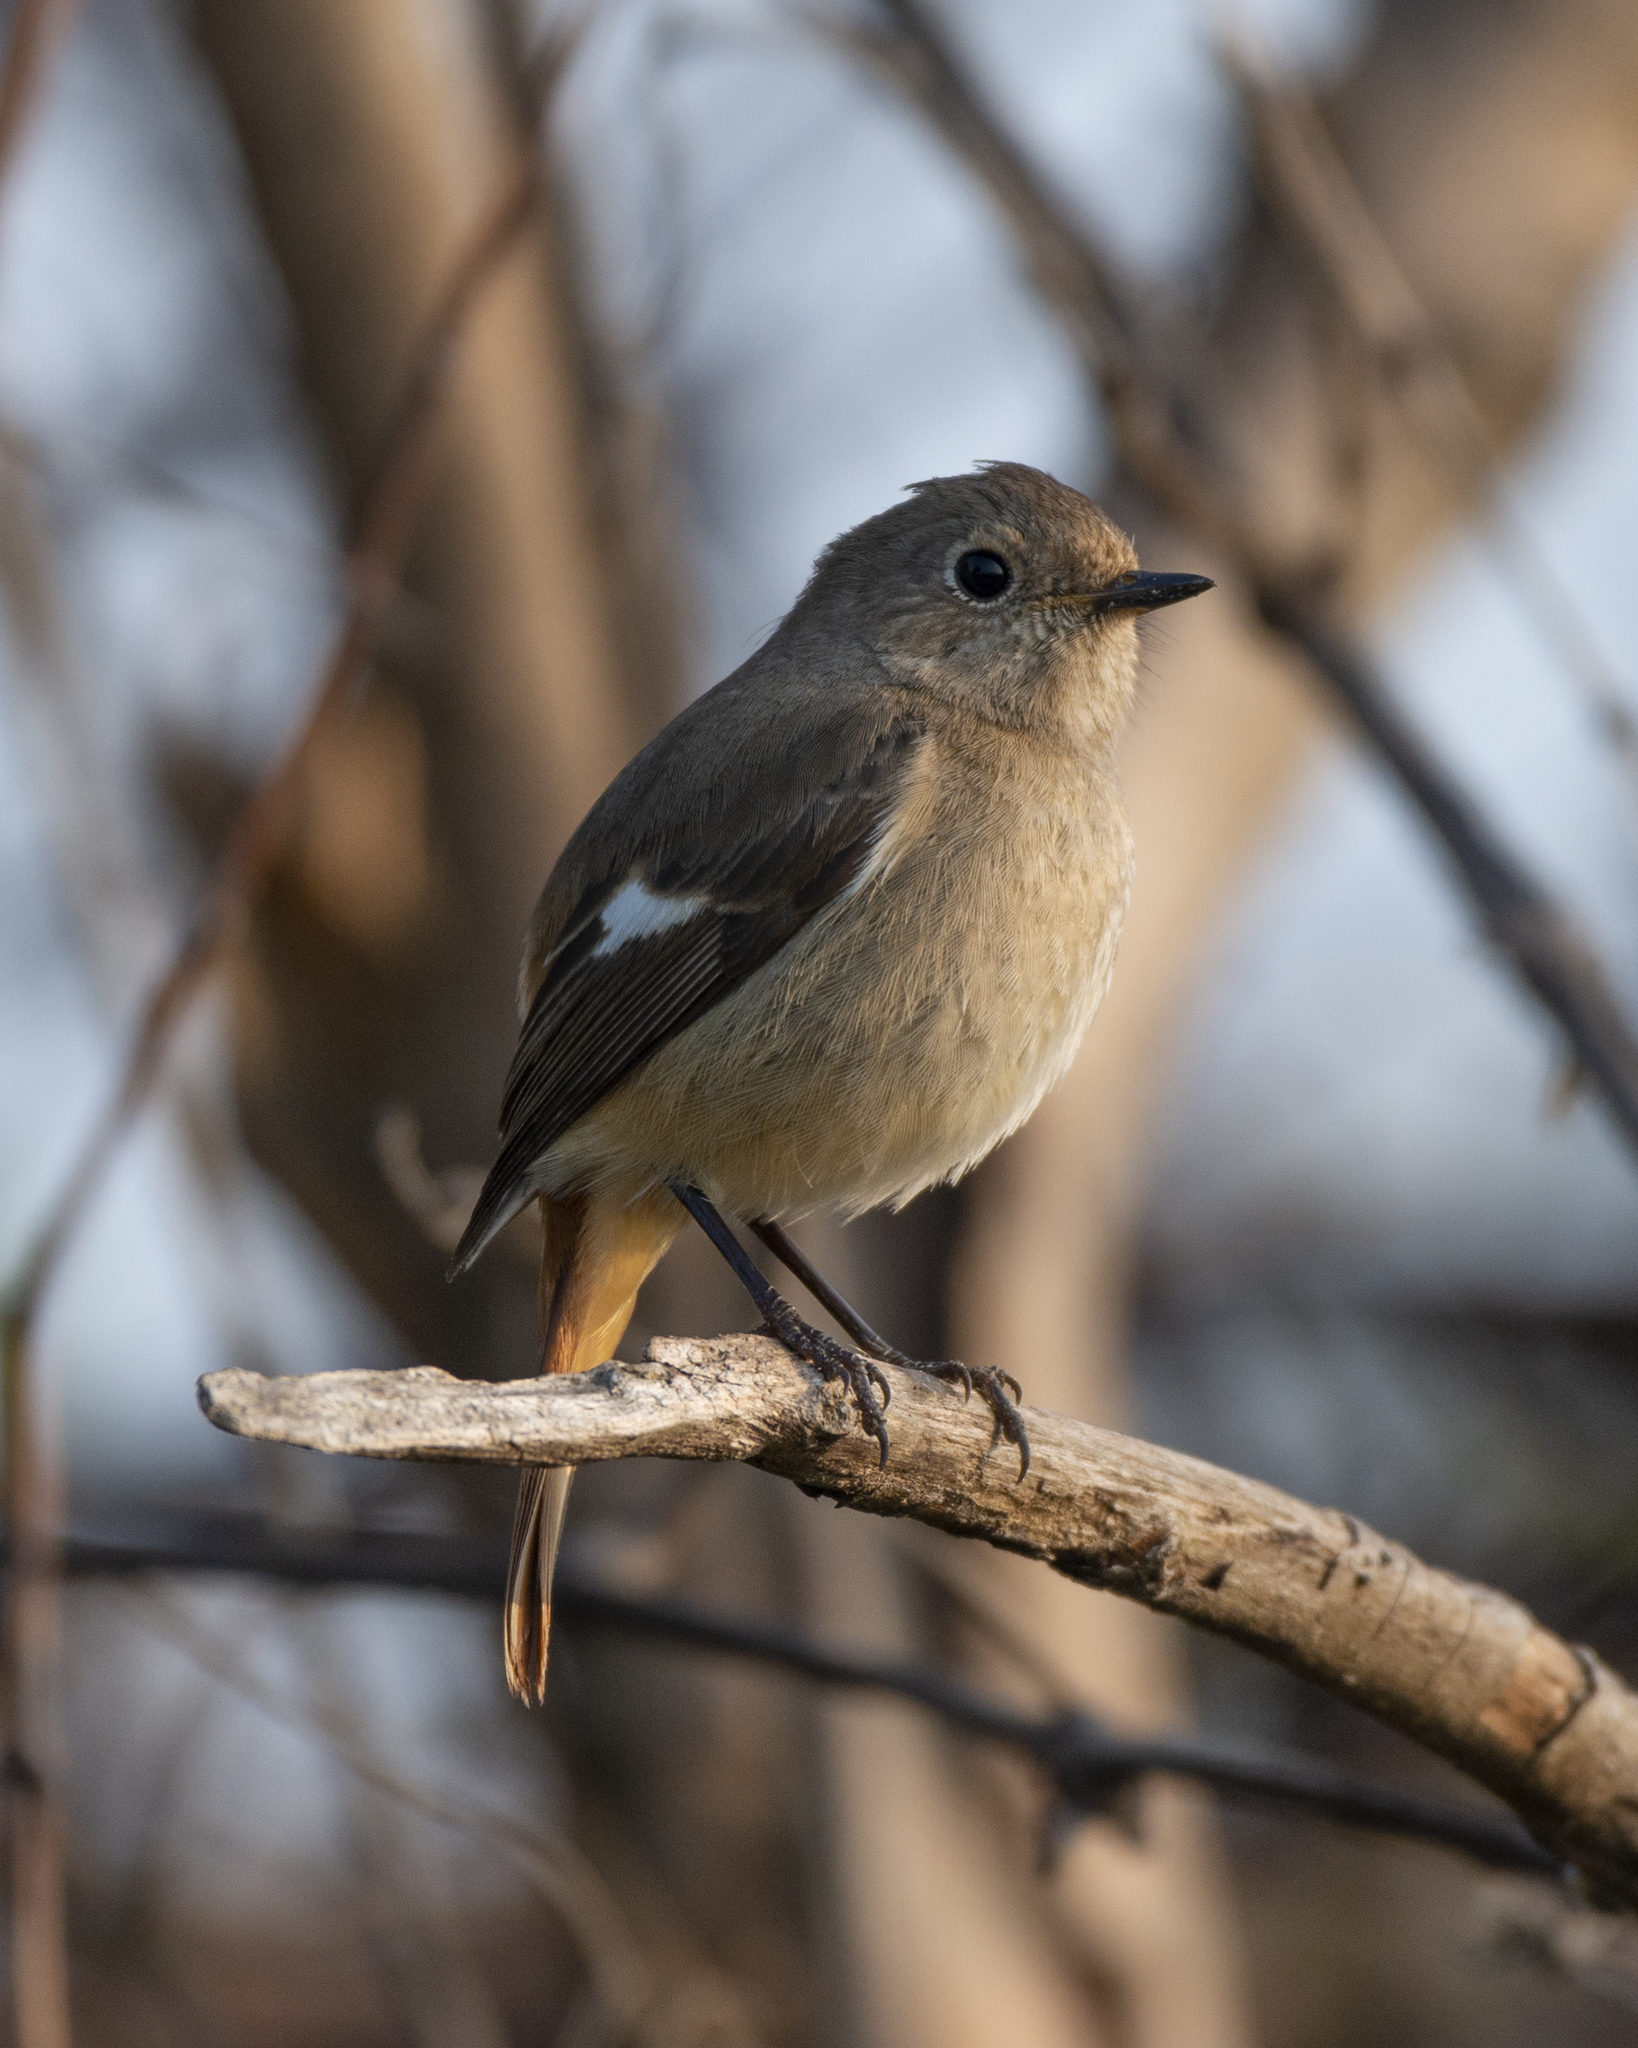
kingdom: Animalia
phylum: Chordata
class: Aves
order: Passeriformes
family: Muscicapidae
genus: Phoenicurus
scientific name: Phoenicurus auroreus
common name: Daurian redstart
